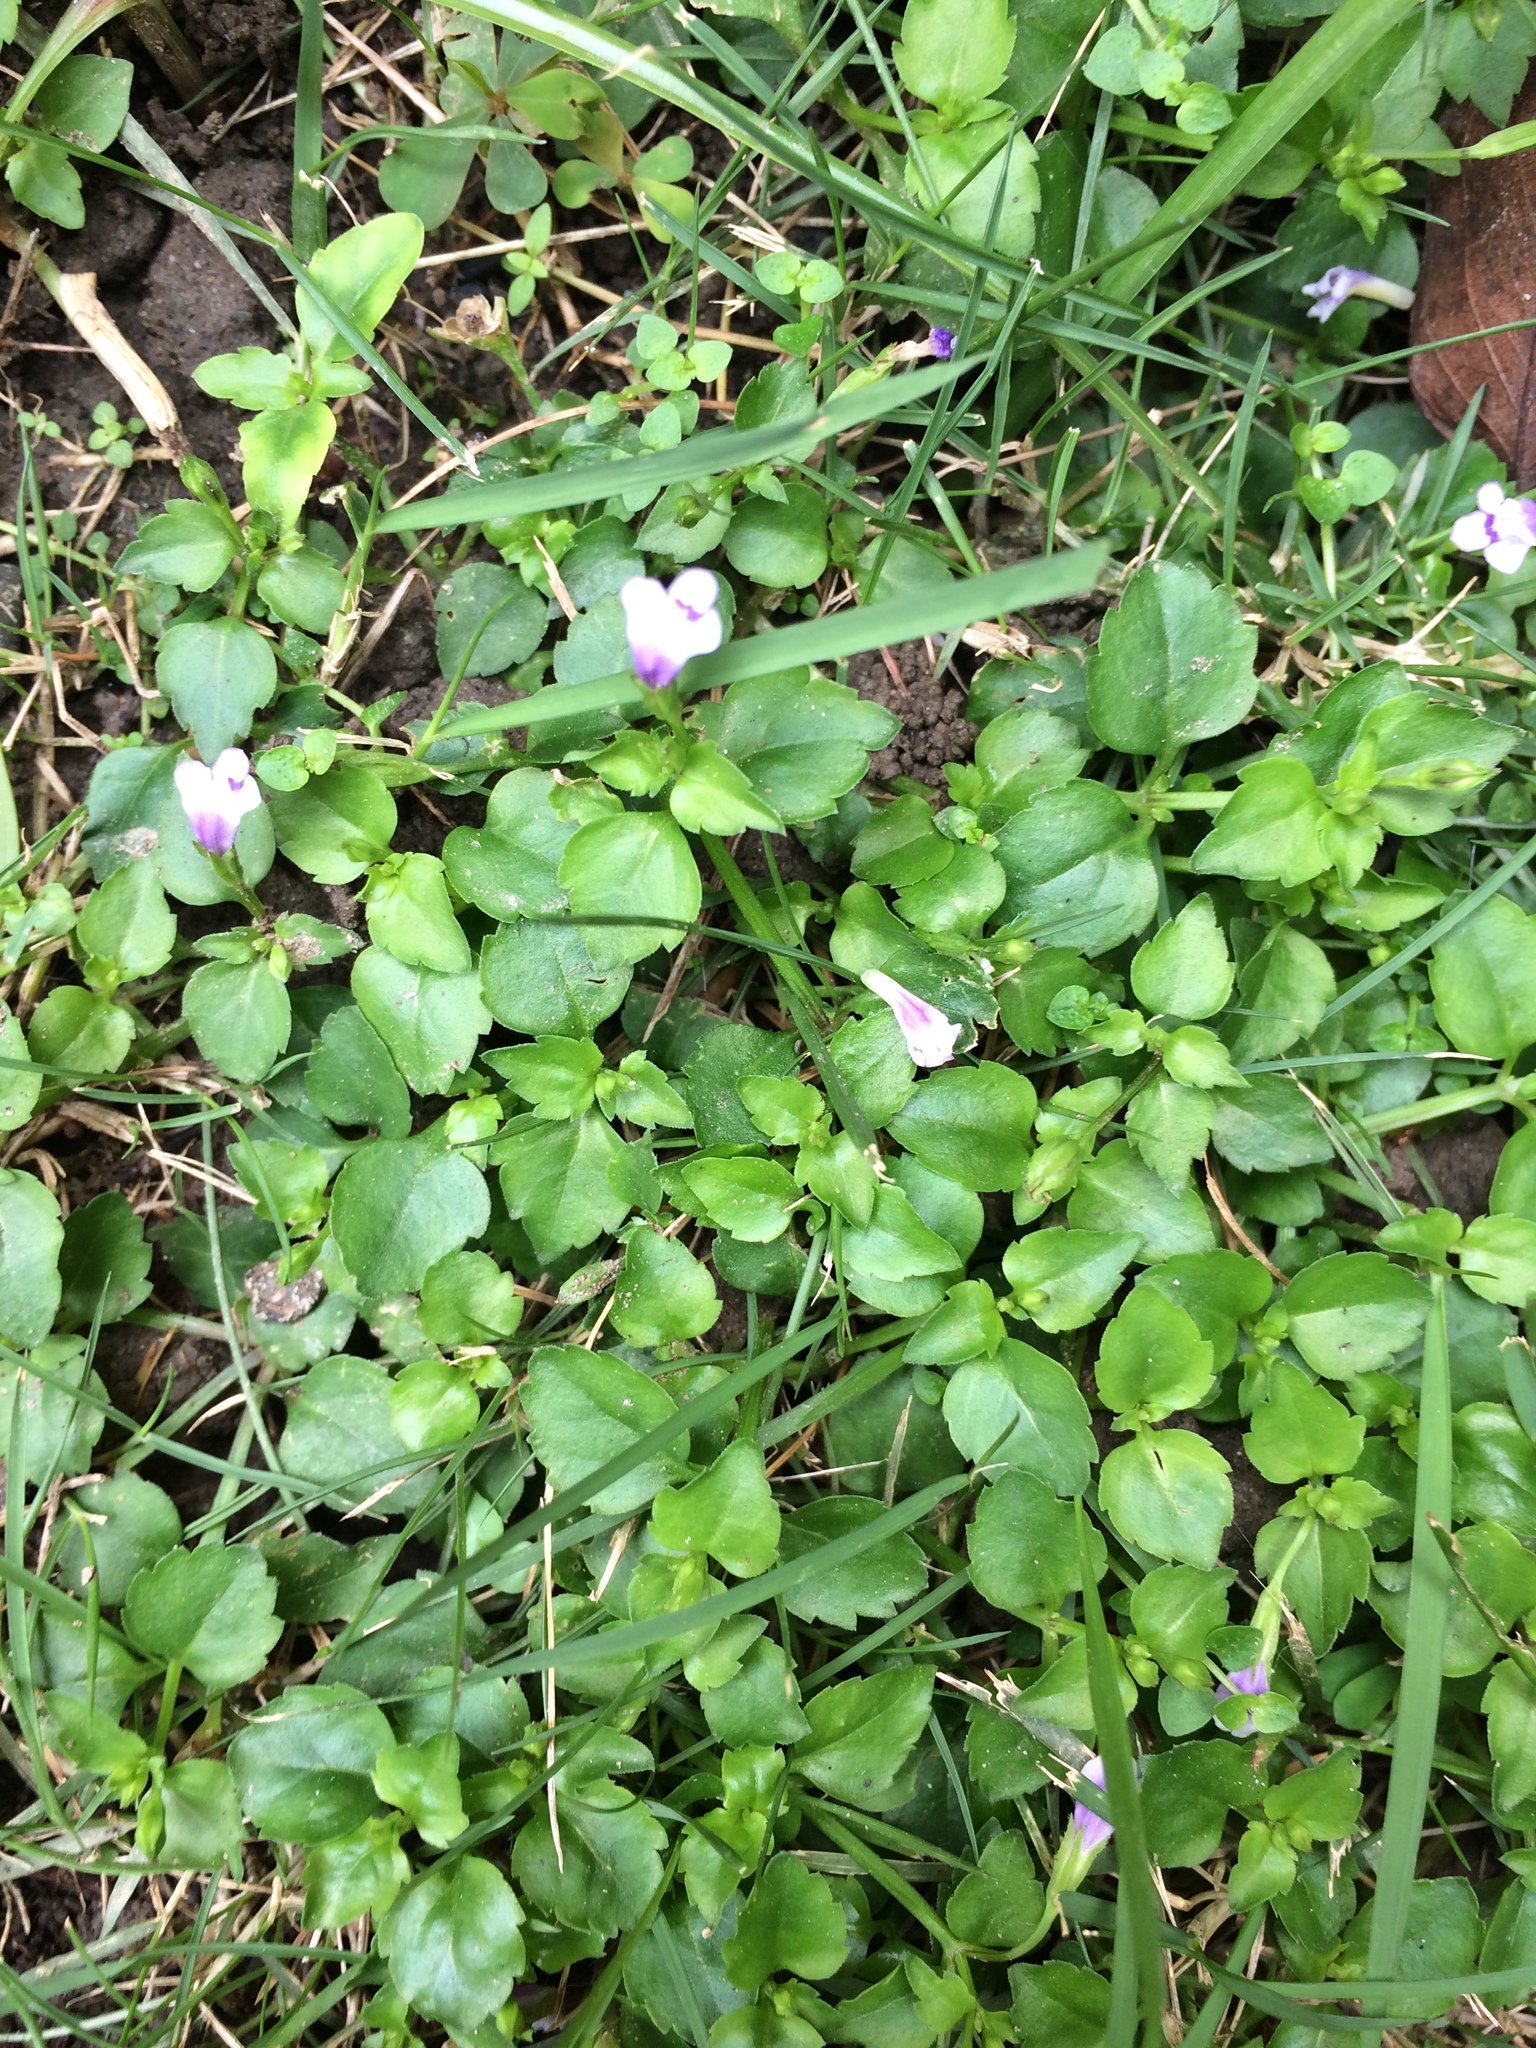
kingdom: Plantae
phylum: Tracheophyta
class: Magnoliopsida
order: Lamiales
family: Linderniaceae
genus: Torenia
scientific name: Torenia crustacea
